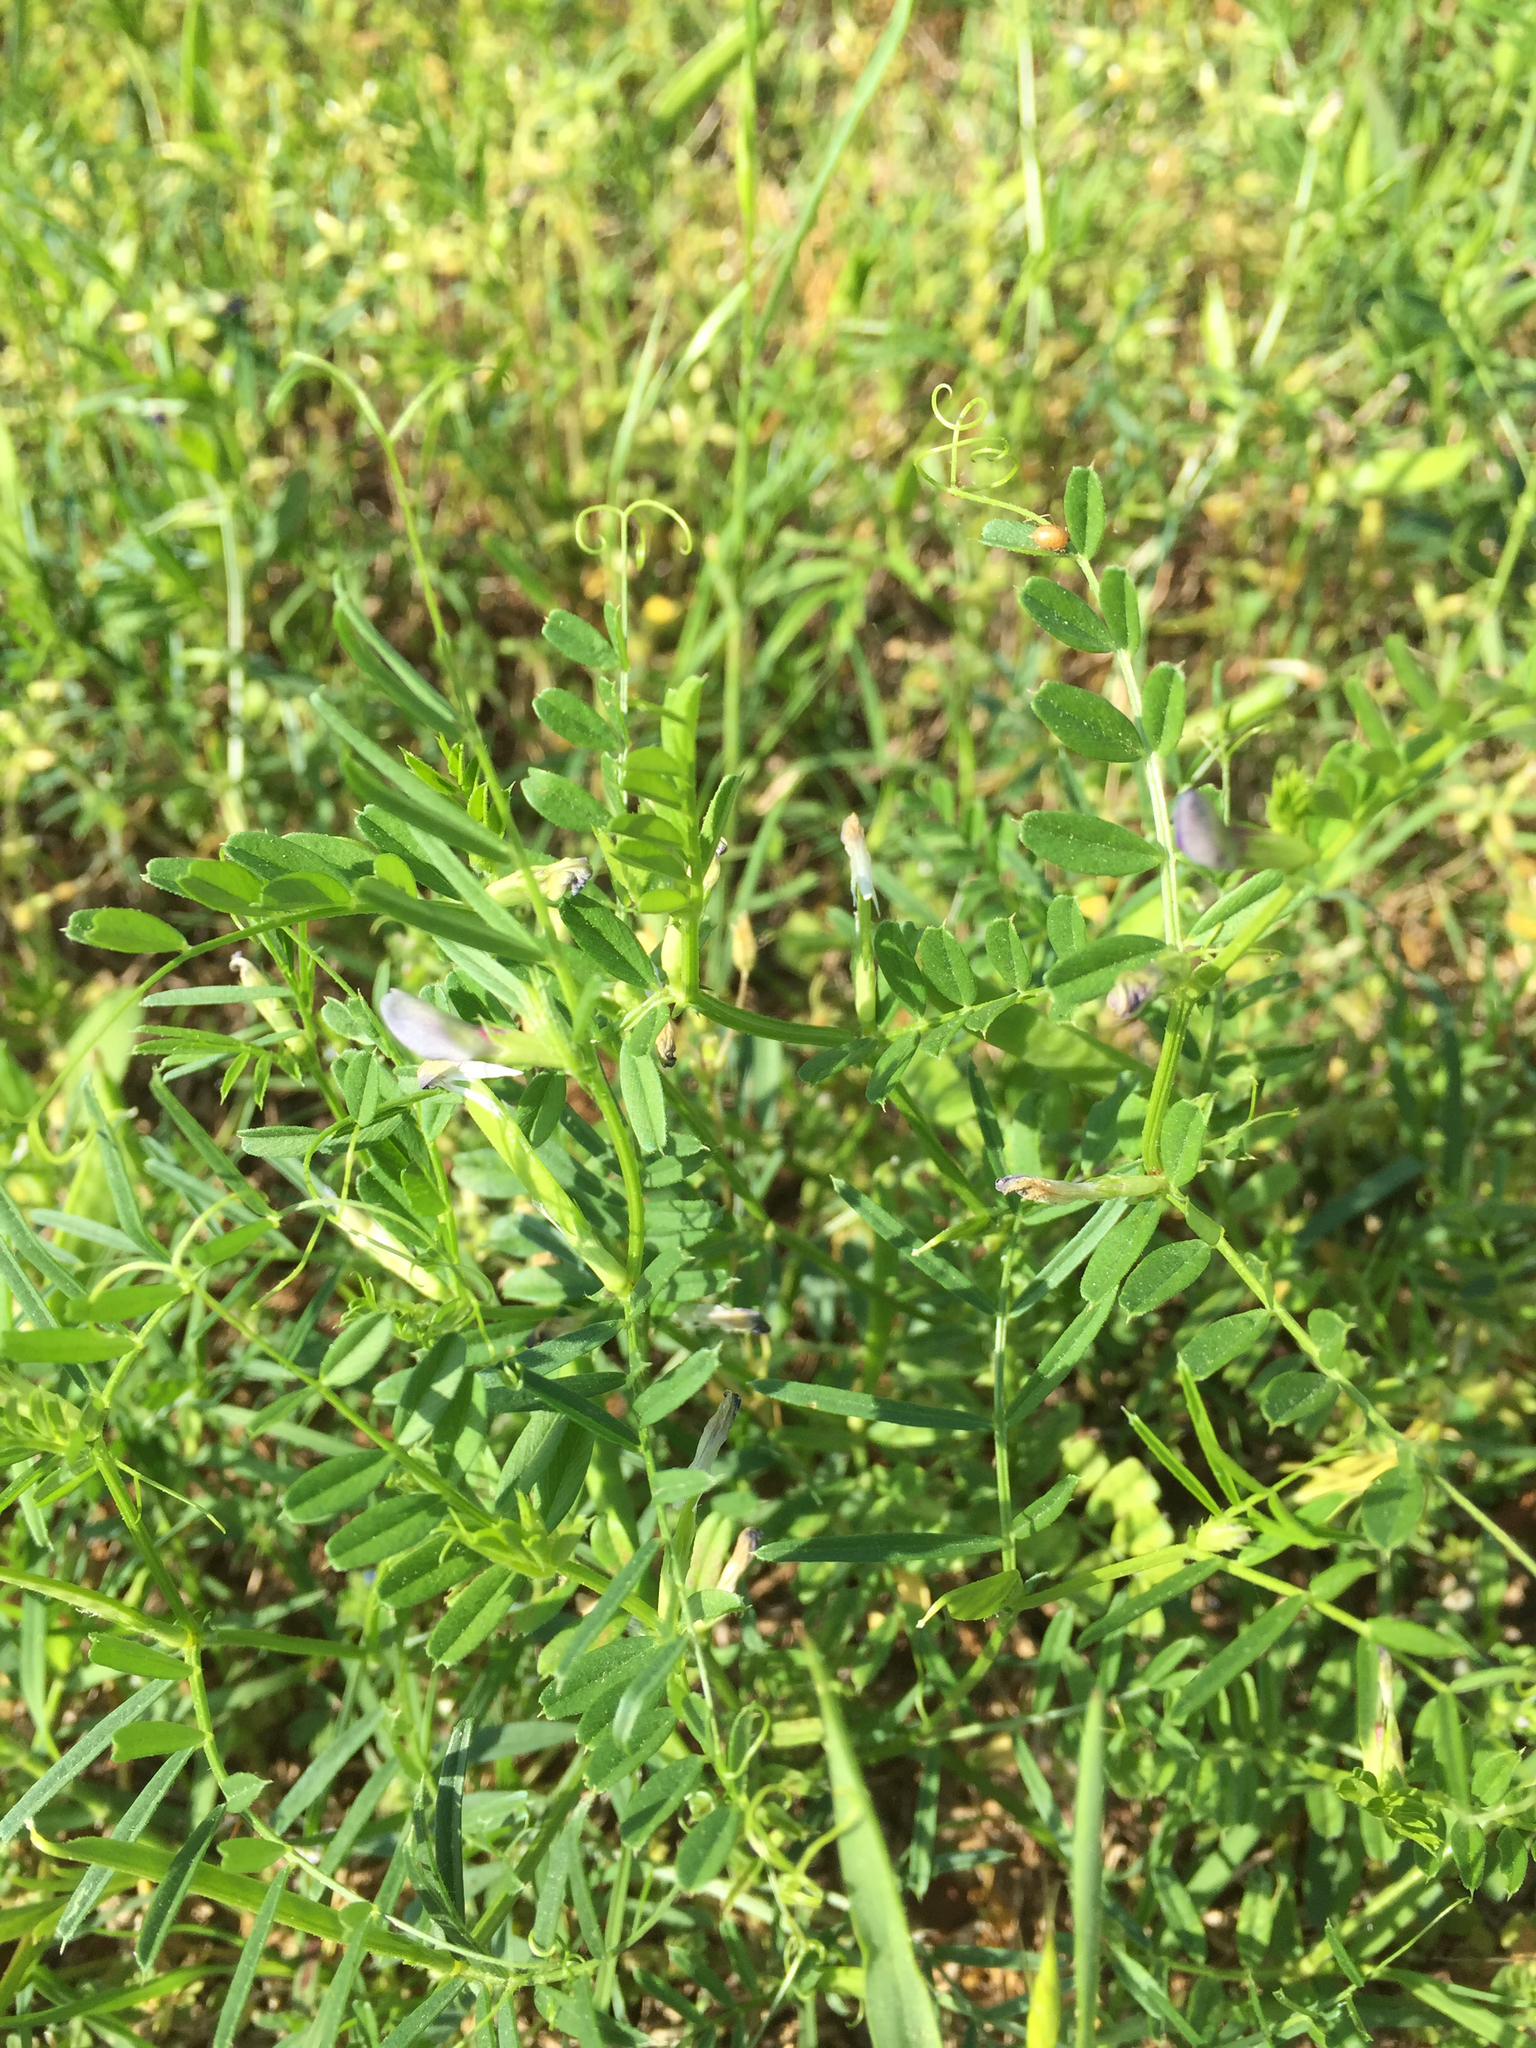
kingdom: Plantae
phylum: Tracheophyta
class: Magnoliopsida
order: Fabales
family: Fabaceae
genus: Vicia
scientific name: Vicia sativa
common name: Garden vetch
